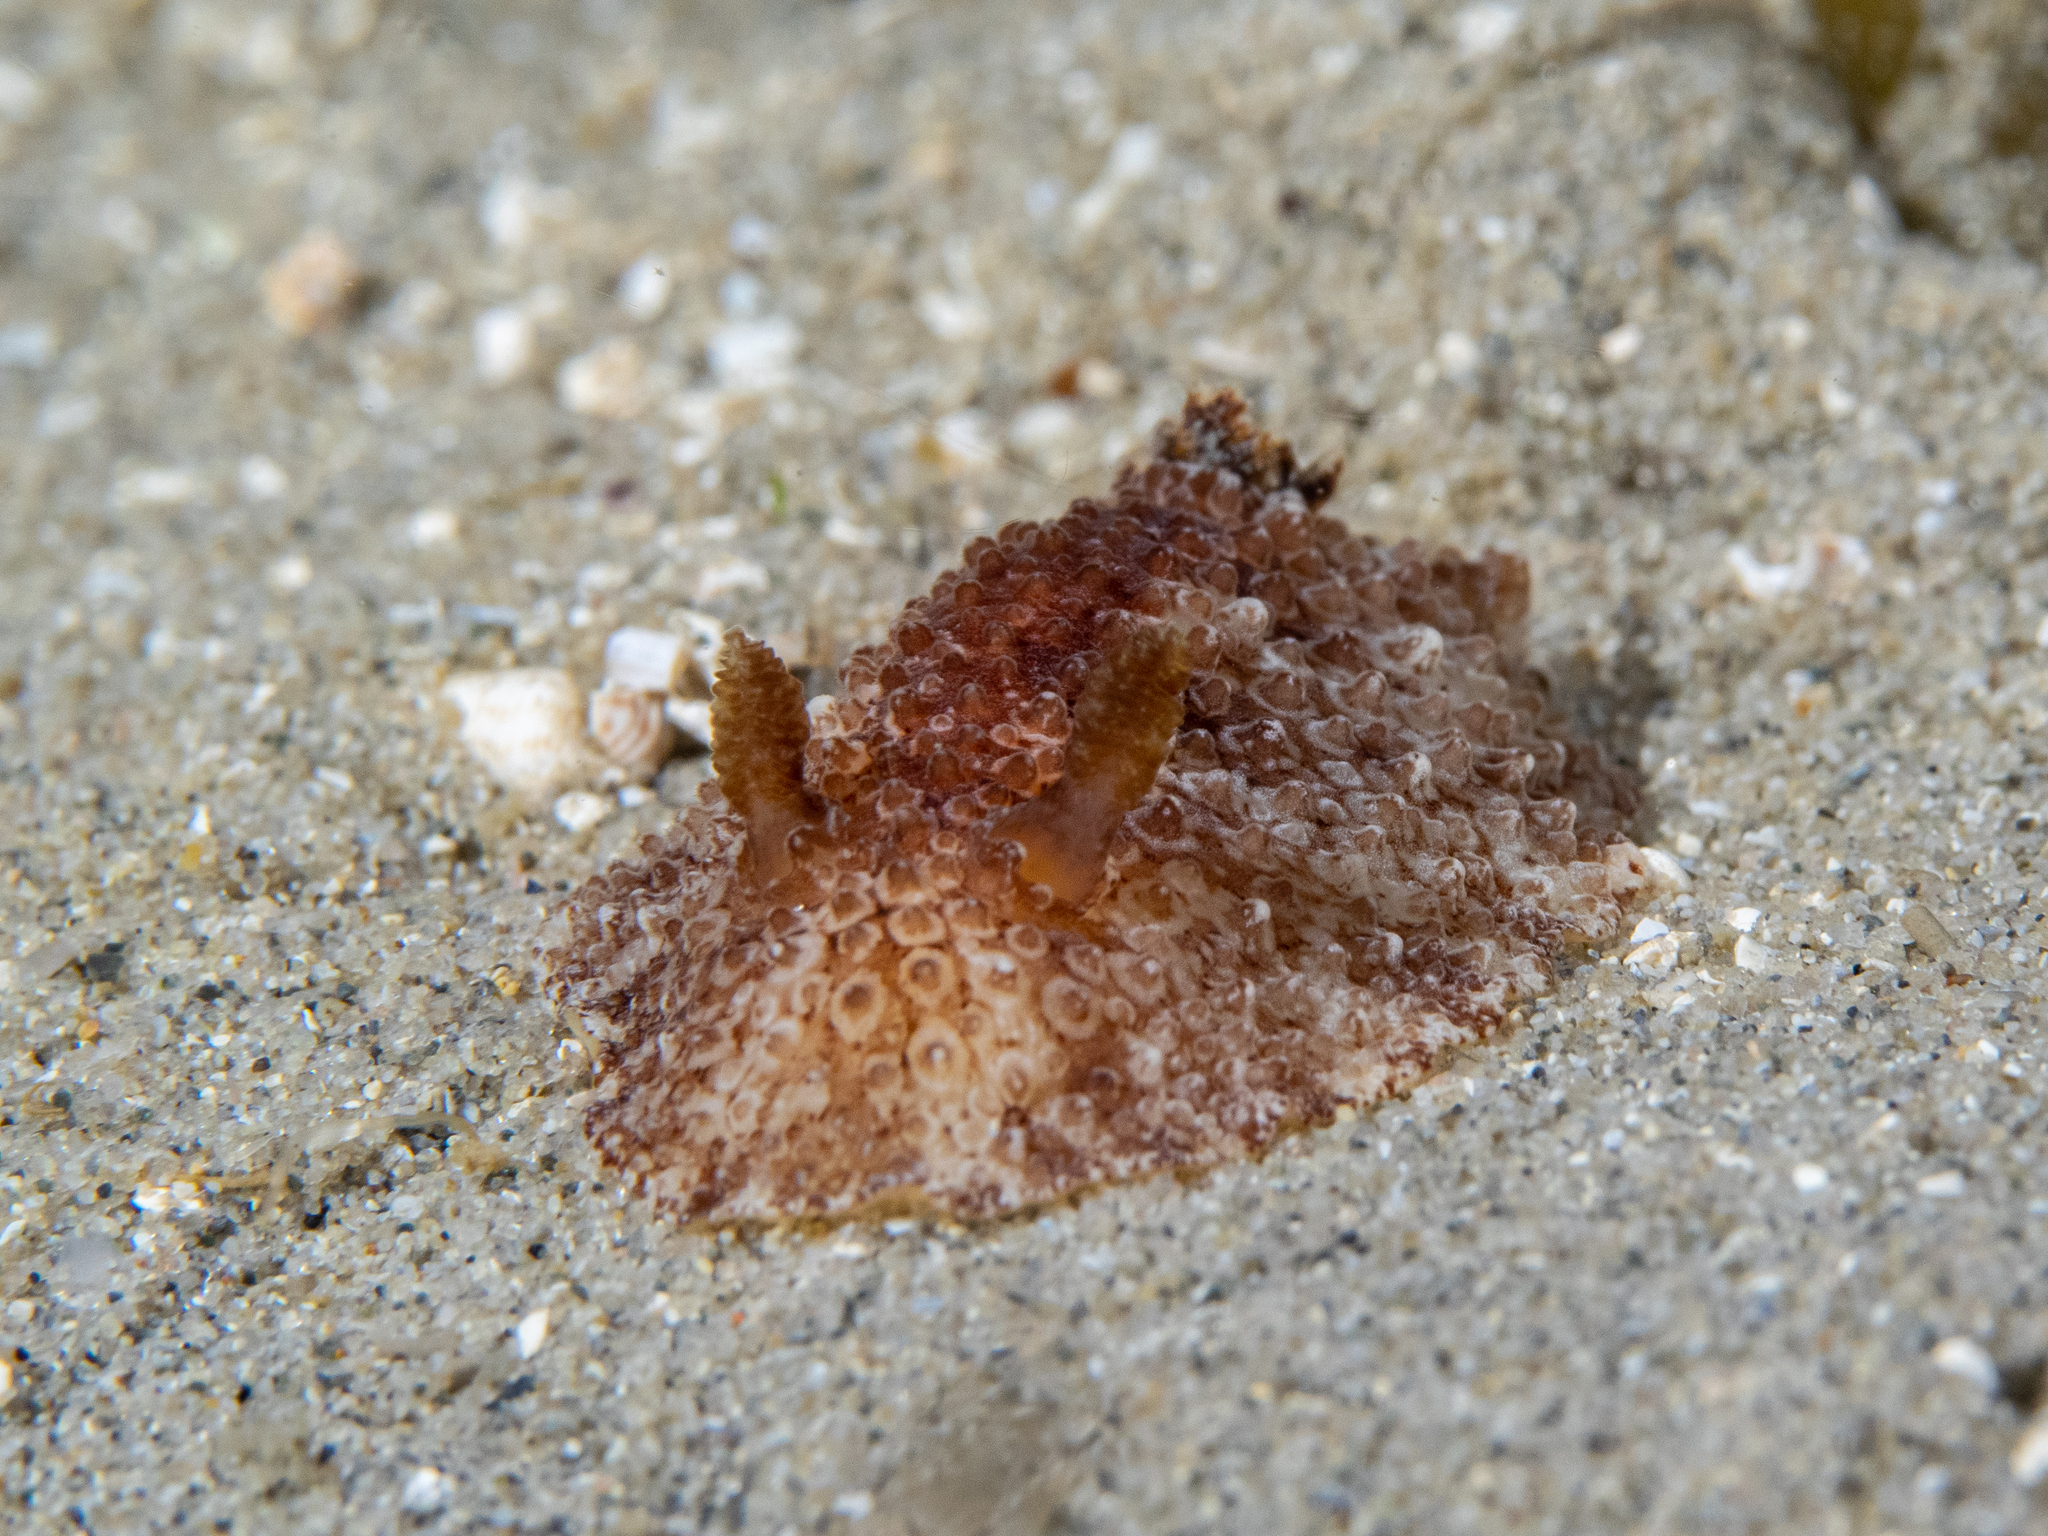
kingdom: Animalia
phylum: Mollusca
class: Gastropoda
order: Nudibranchia
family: Discodorididae
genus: Carminodoris
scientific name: Carminodoris nodulosa
